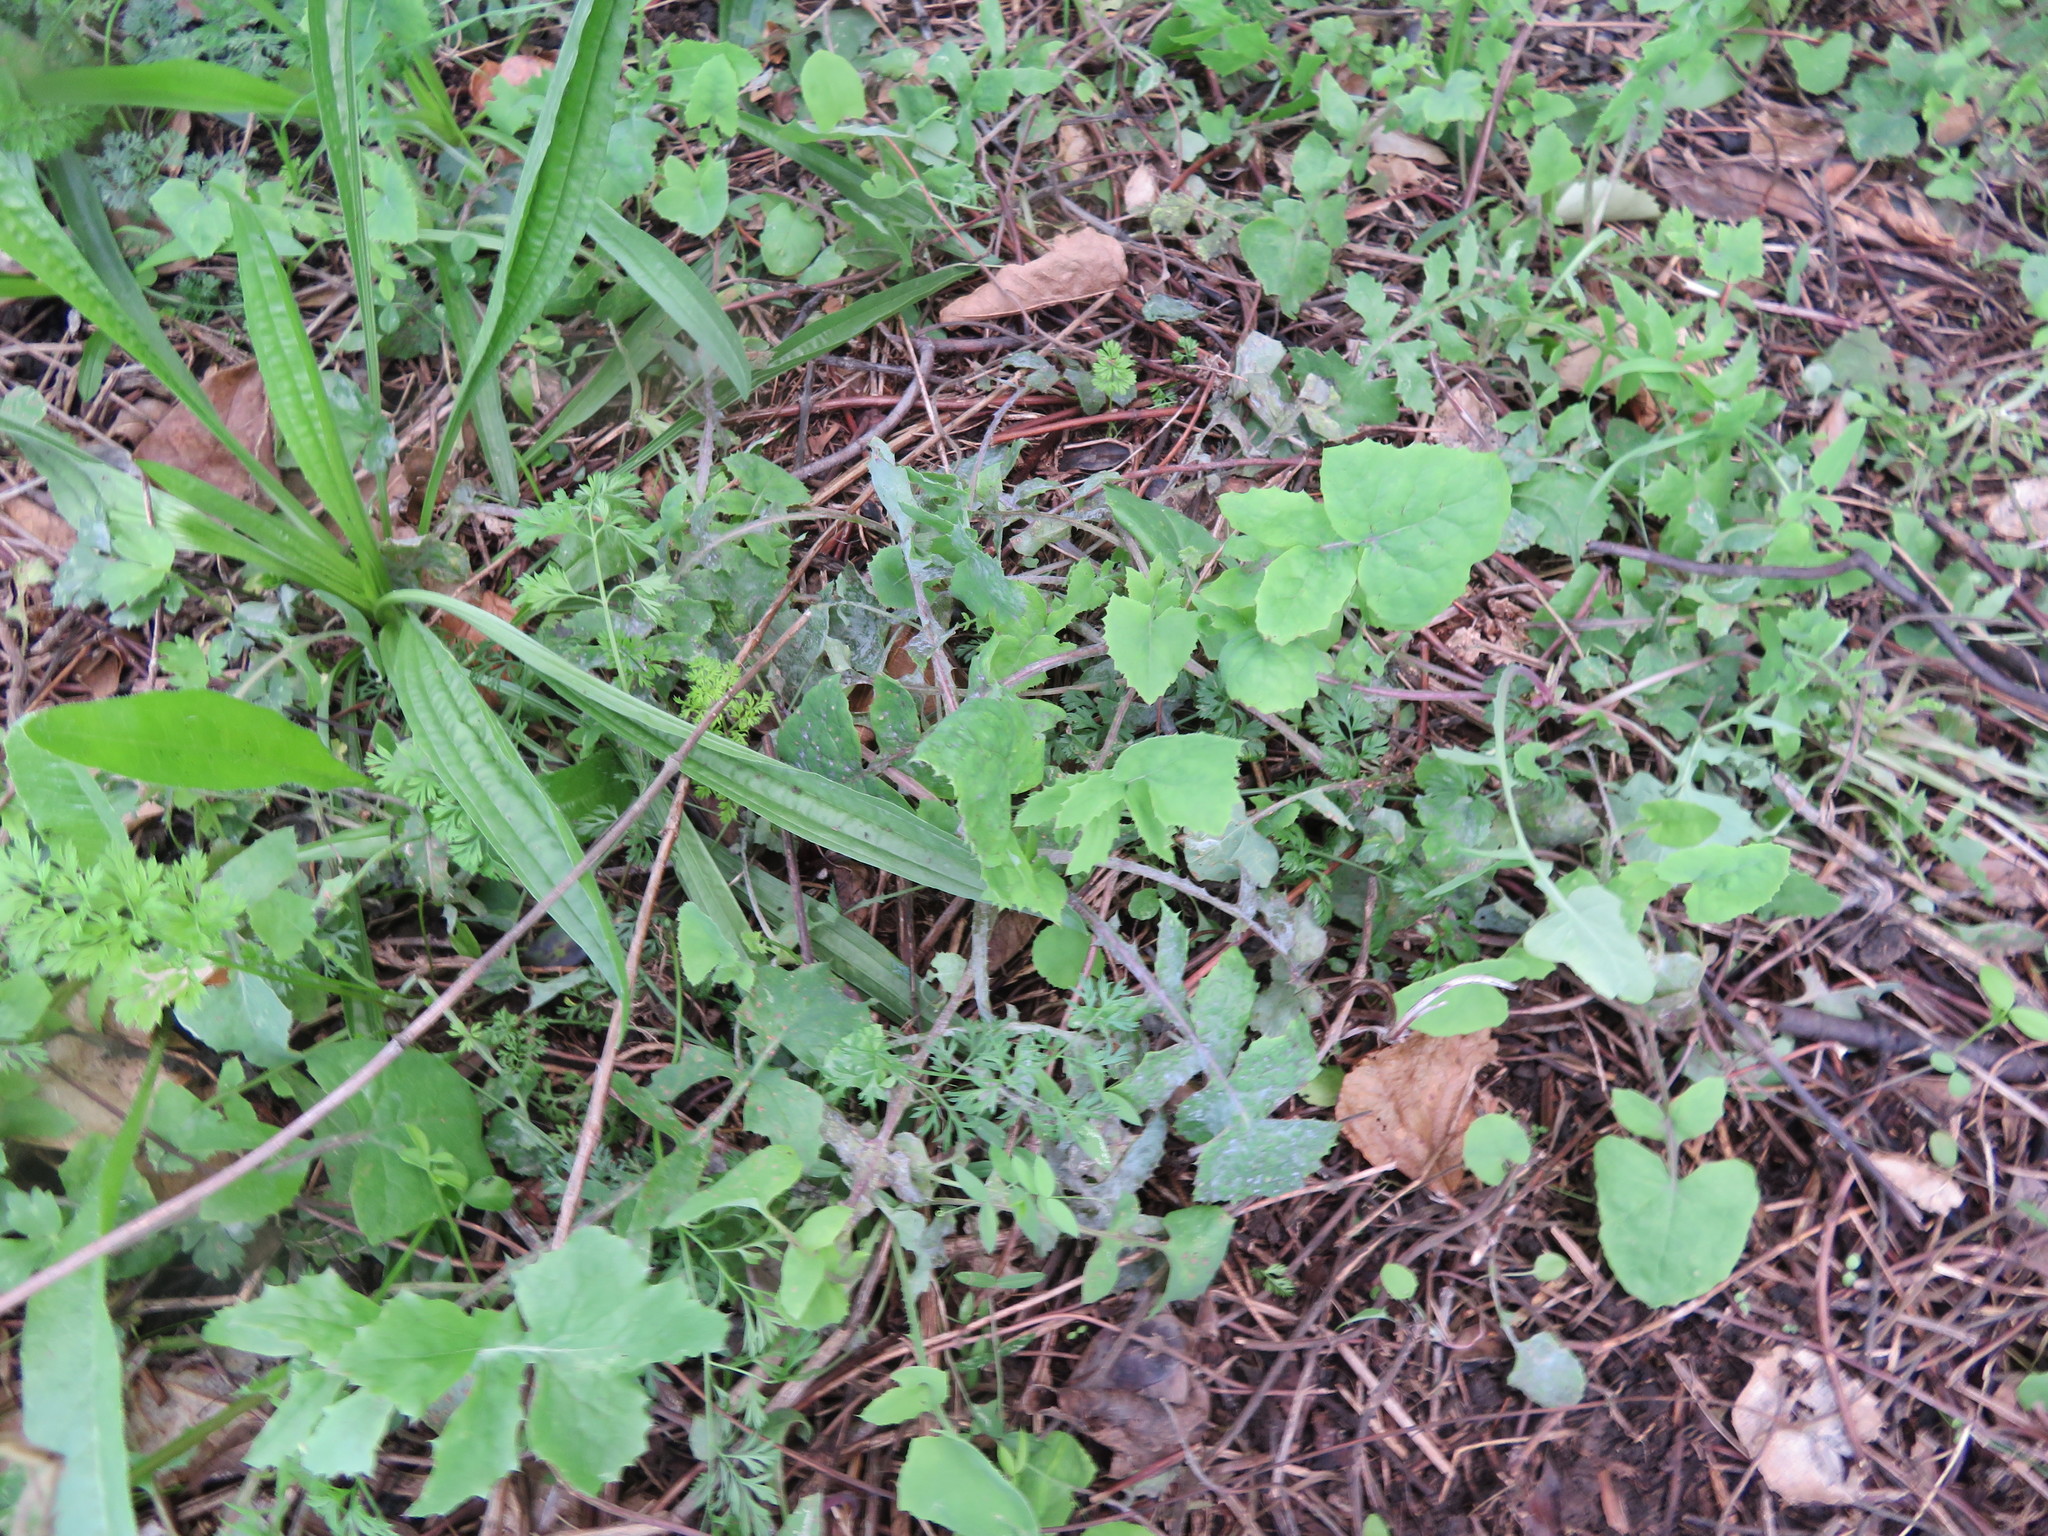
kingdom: Plantae
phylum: Tracheophyta
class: Magnoliopsida
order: Lamiales
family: Plantaginaceae
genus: Plantago
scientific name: Plantago lanceolata
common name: Ribwort plantain
